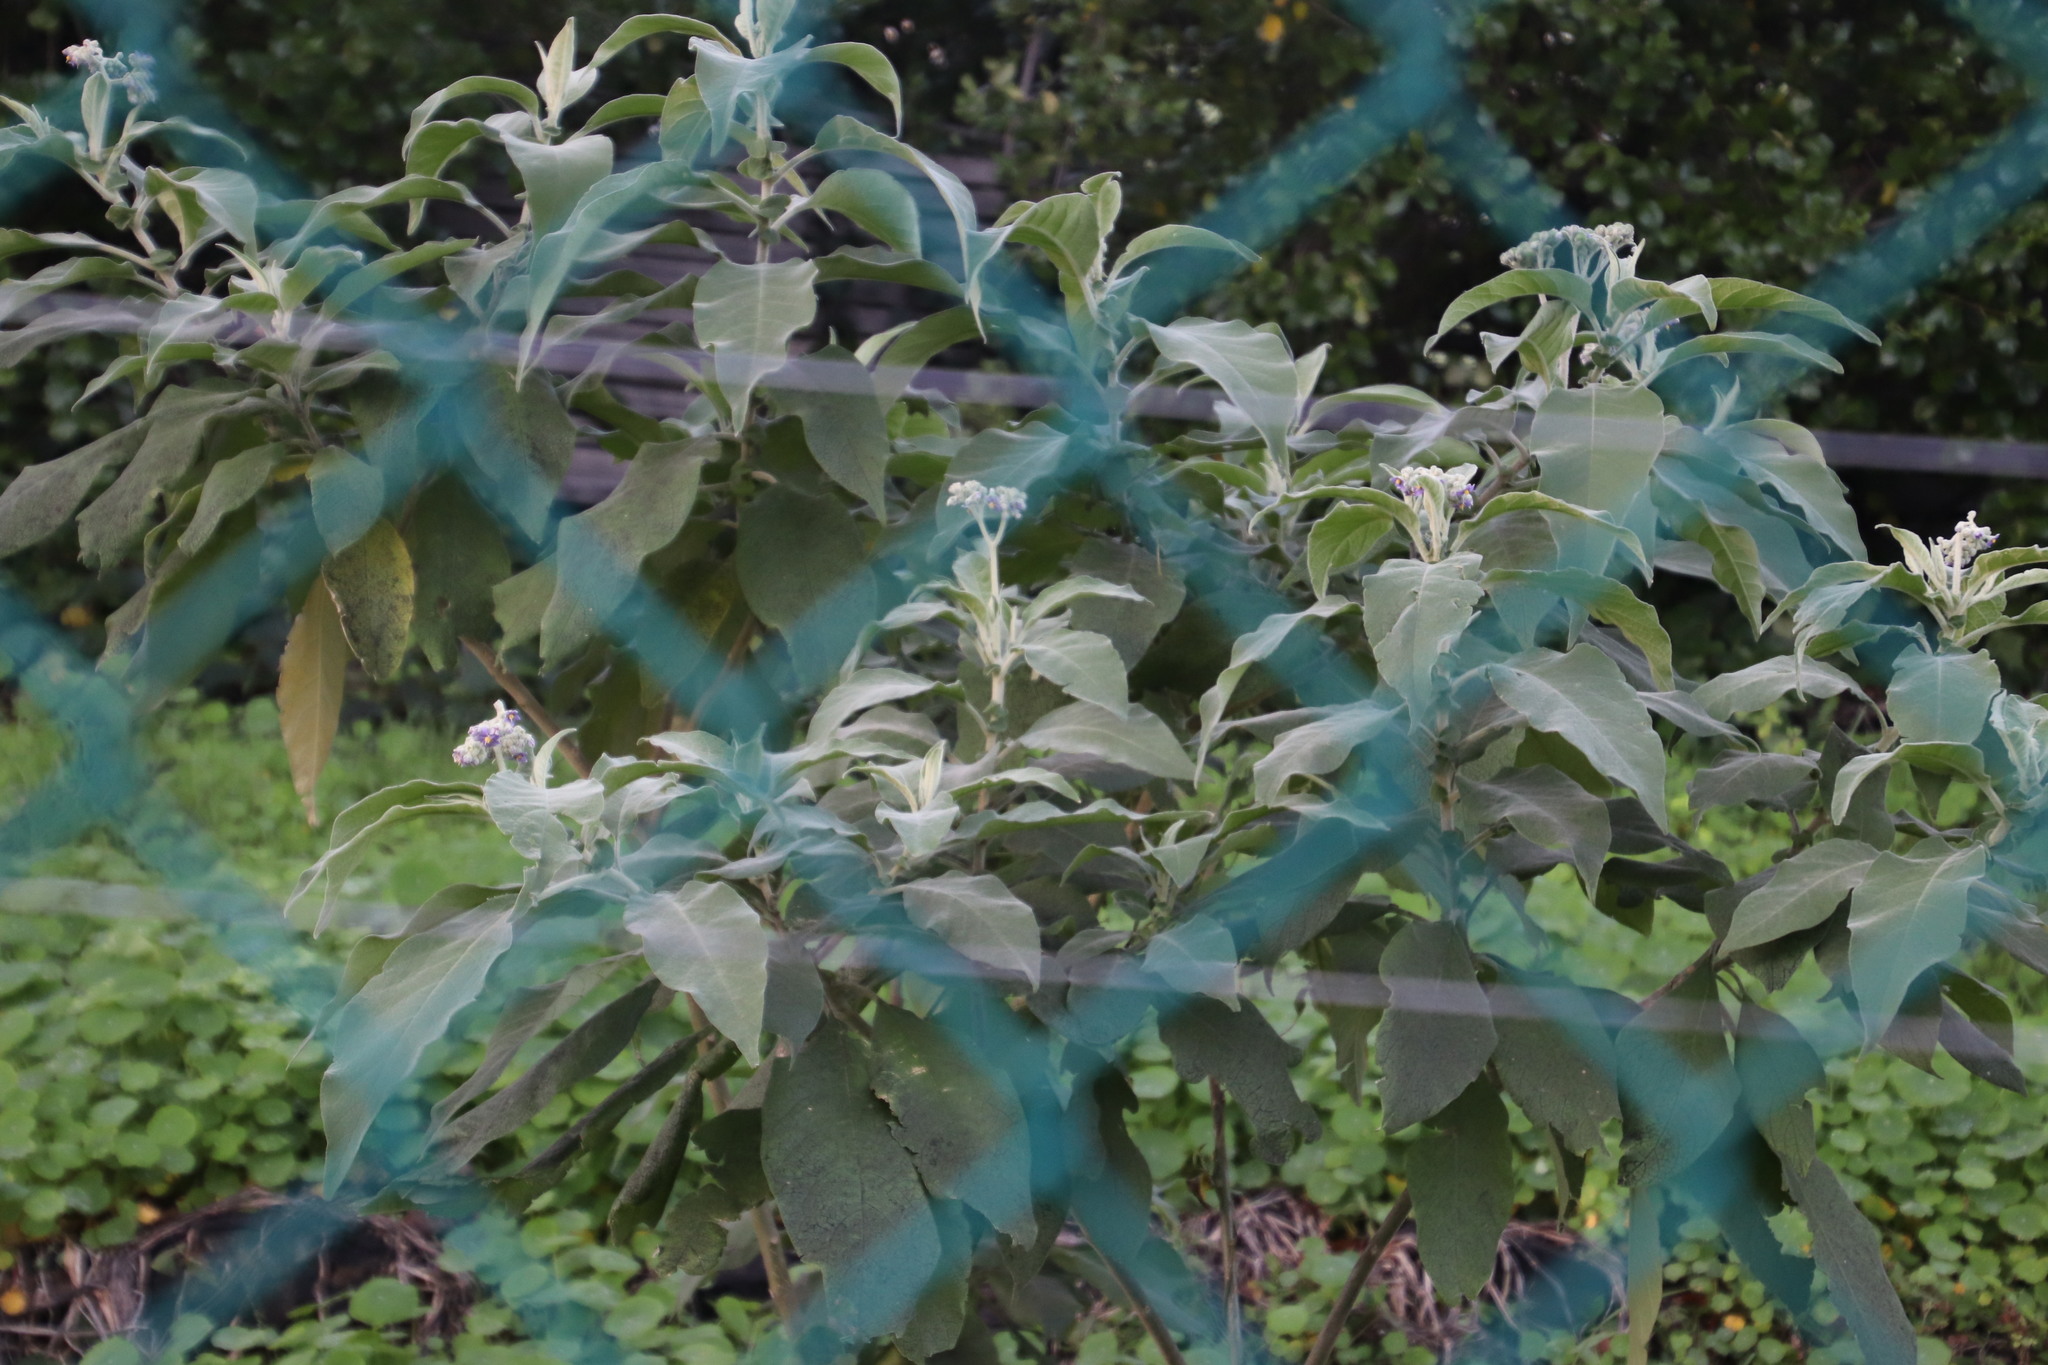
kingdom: Plantae
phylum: Tracheophyta
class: Magnoliopsida
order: Solanales
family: Solanaceae
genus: Solanum
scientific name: Solanum mauritianum
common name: Earleaf nightshade
